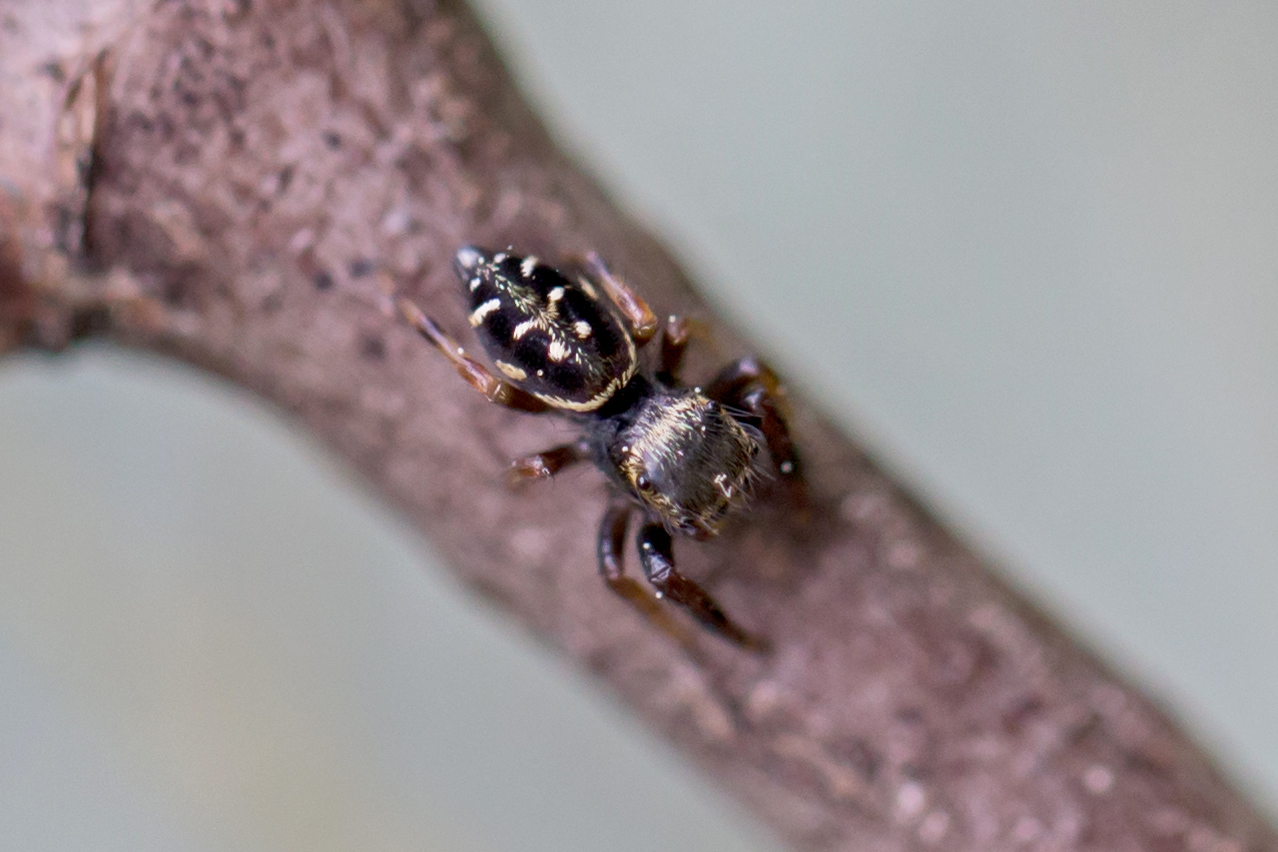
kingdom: Animalia
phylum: Arthropoda
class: Arachnida
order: Araneae
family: Salticidae
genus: Paraphidippus
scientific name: Paraphidippus aurantius
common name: Jumping spiders
